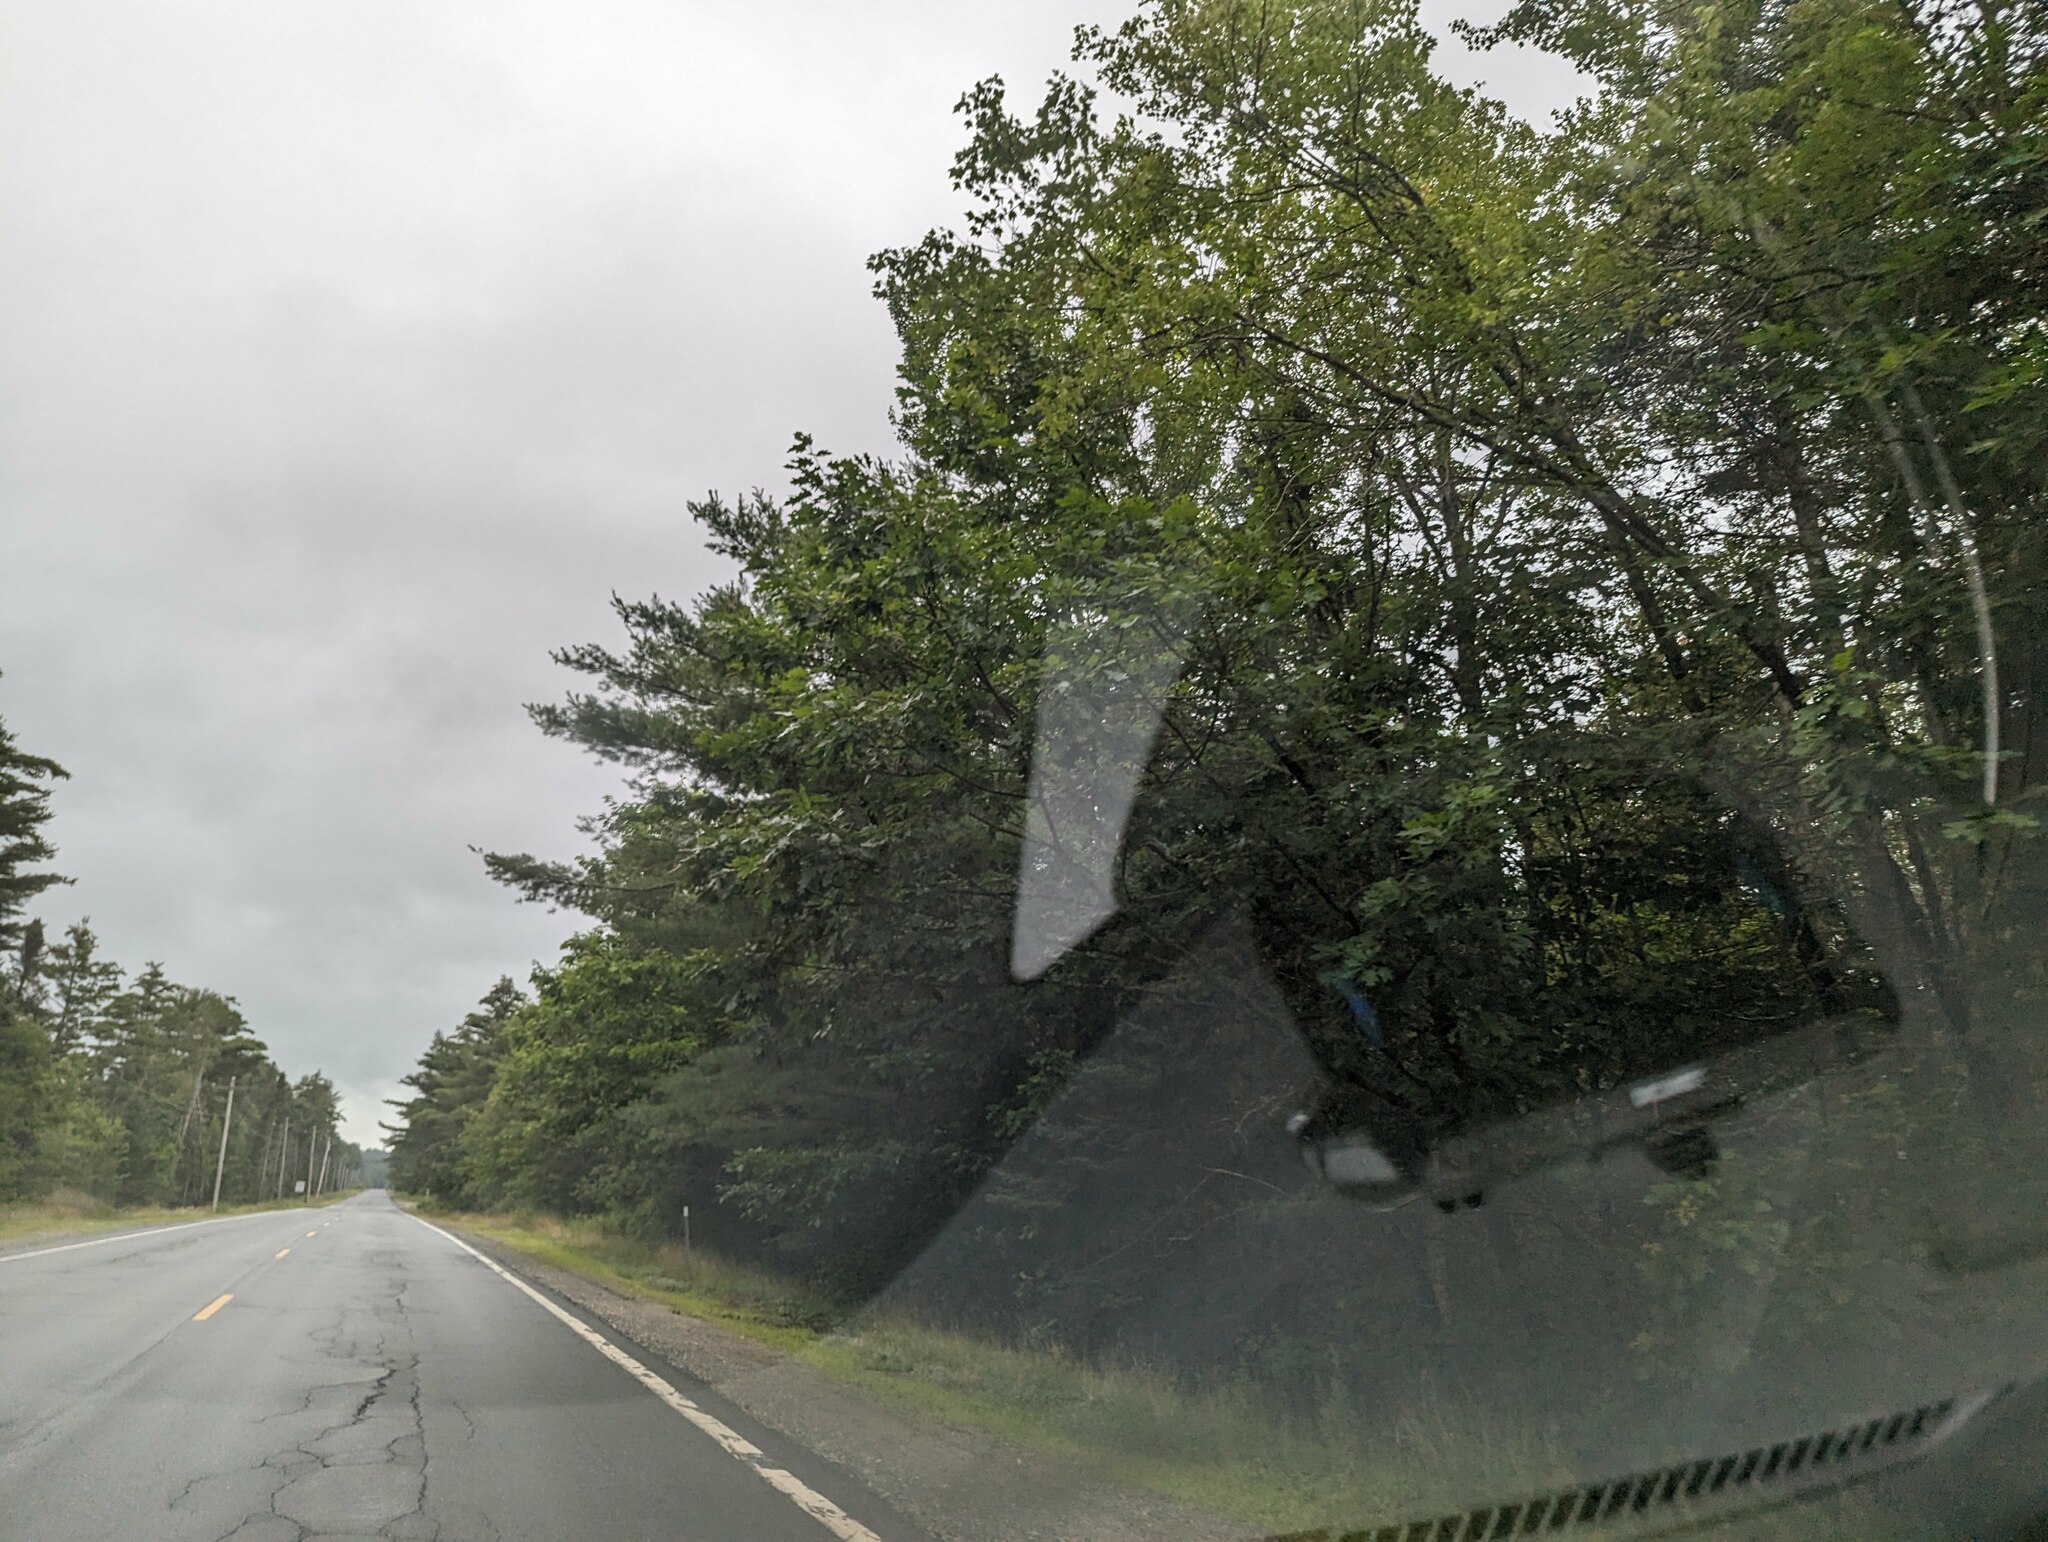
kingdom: Plantae
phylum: Tracheophyta
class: Pinopsida
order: Pinales
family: Pinaceae
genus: Pinus
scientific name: Pinus strobus
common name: Weymouth pine
